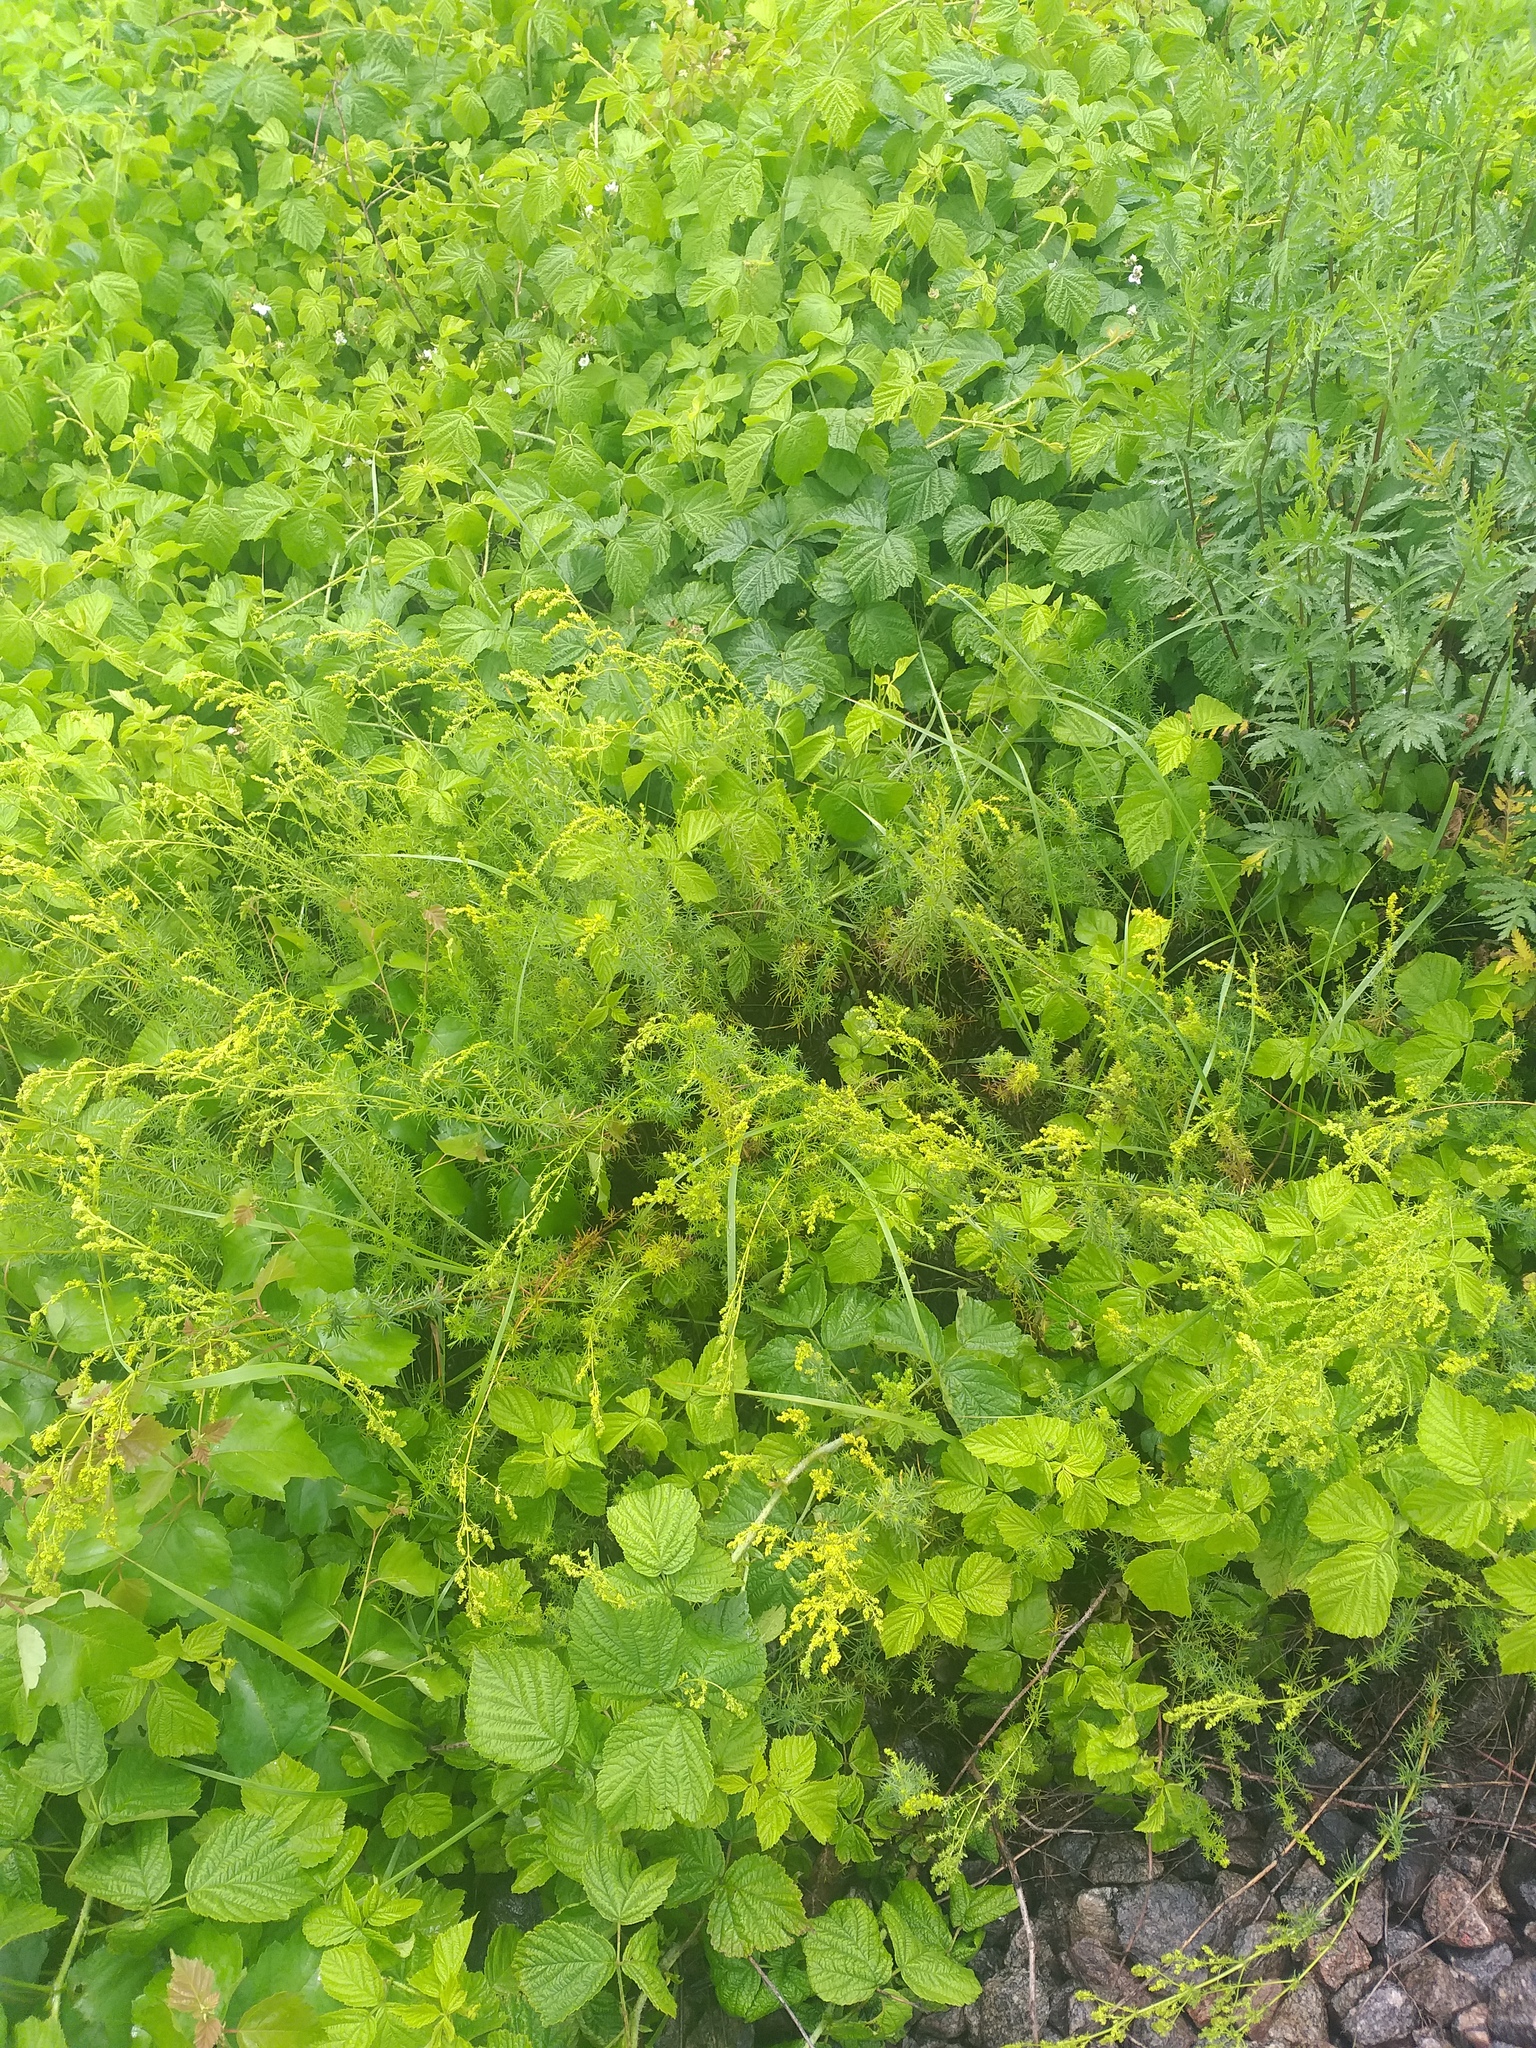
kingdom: Plantae
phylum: Tracheophyta
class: Magnoliopsida
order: Gentianales
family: Rubiaceae
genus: Galium
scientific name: Galium verum
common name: Lady's bedstraw
